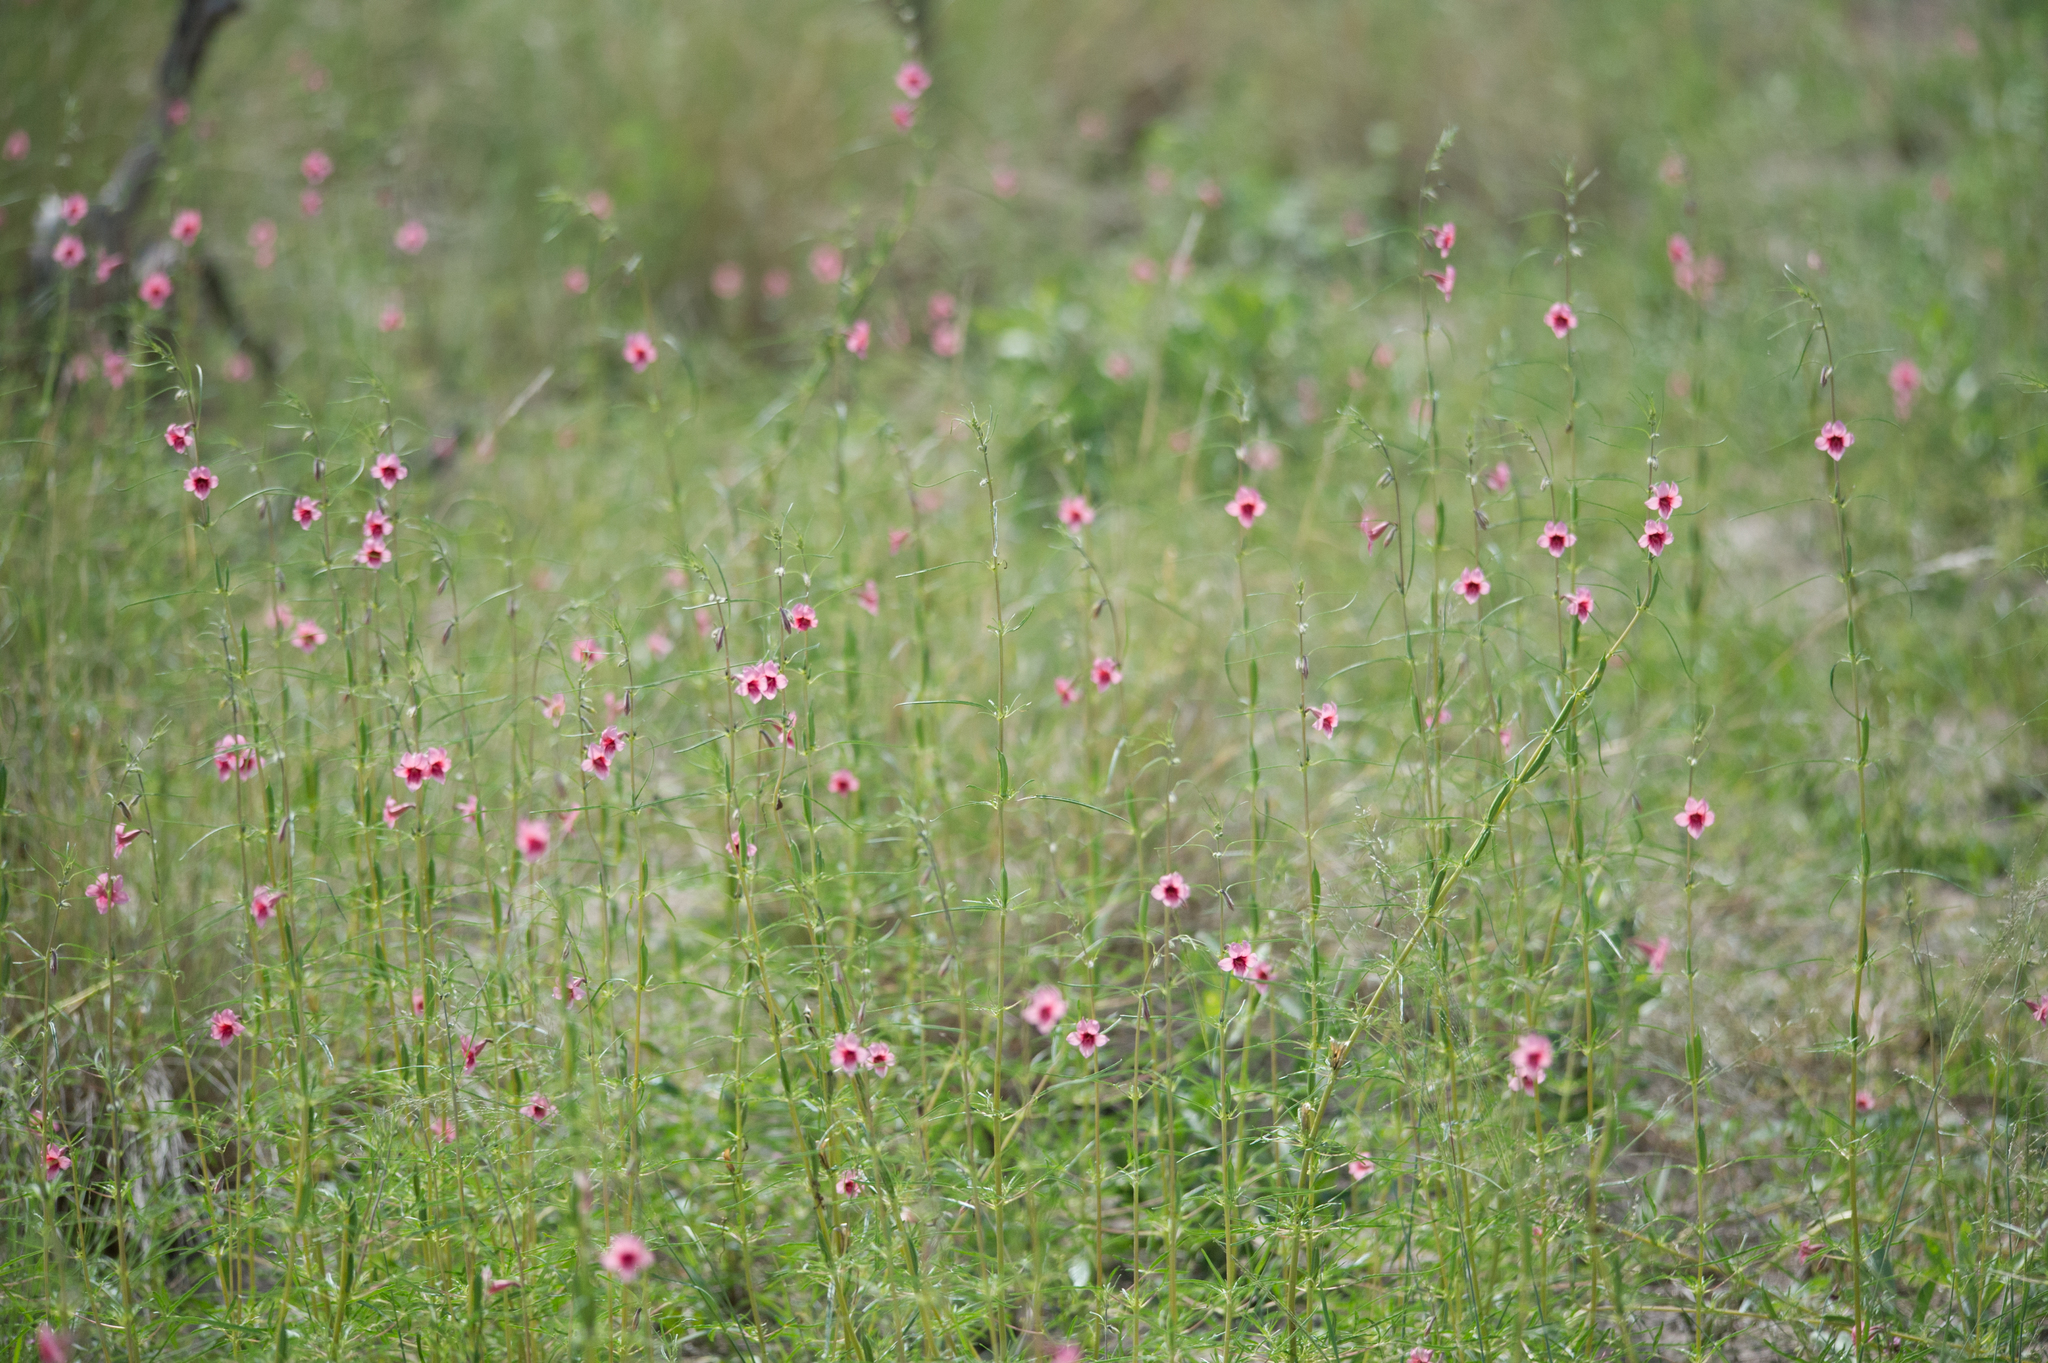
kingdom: Plantae
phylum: Tracheophyta
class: Magnoliopsida
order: Lamiales
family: Pedaliaceae
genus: Sesamum
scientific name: Sesamum calycinum
